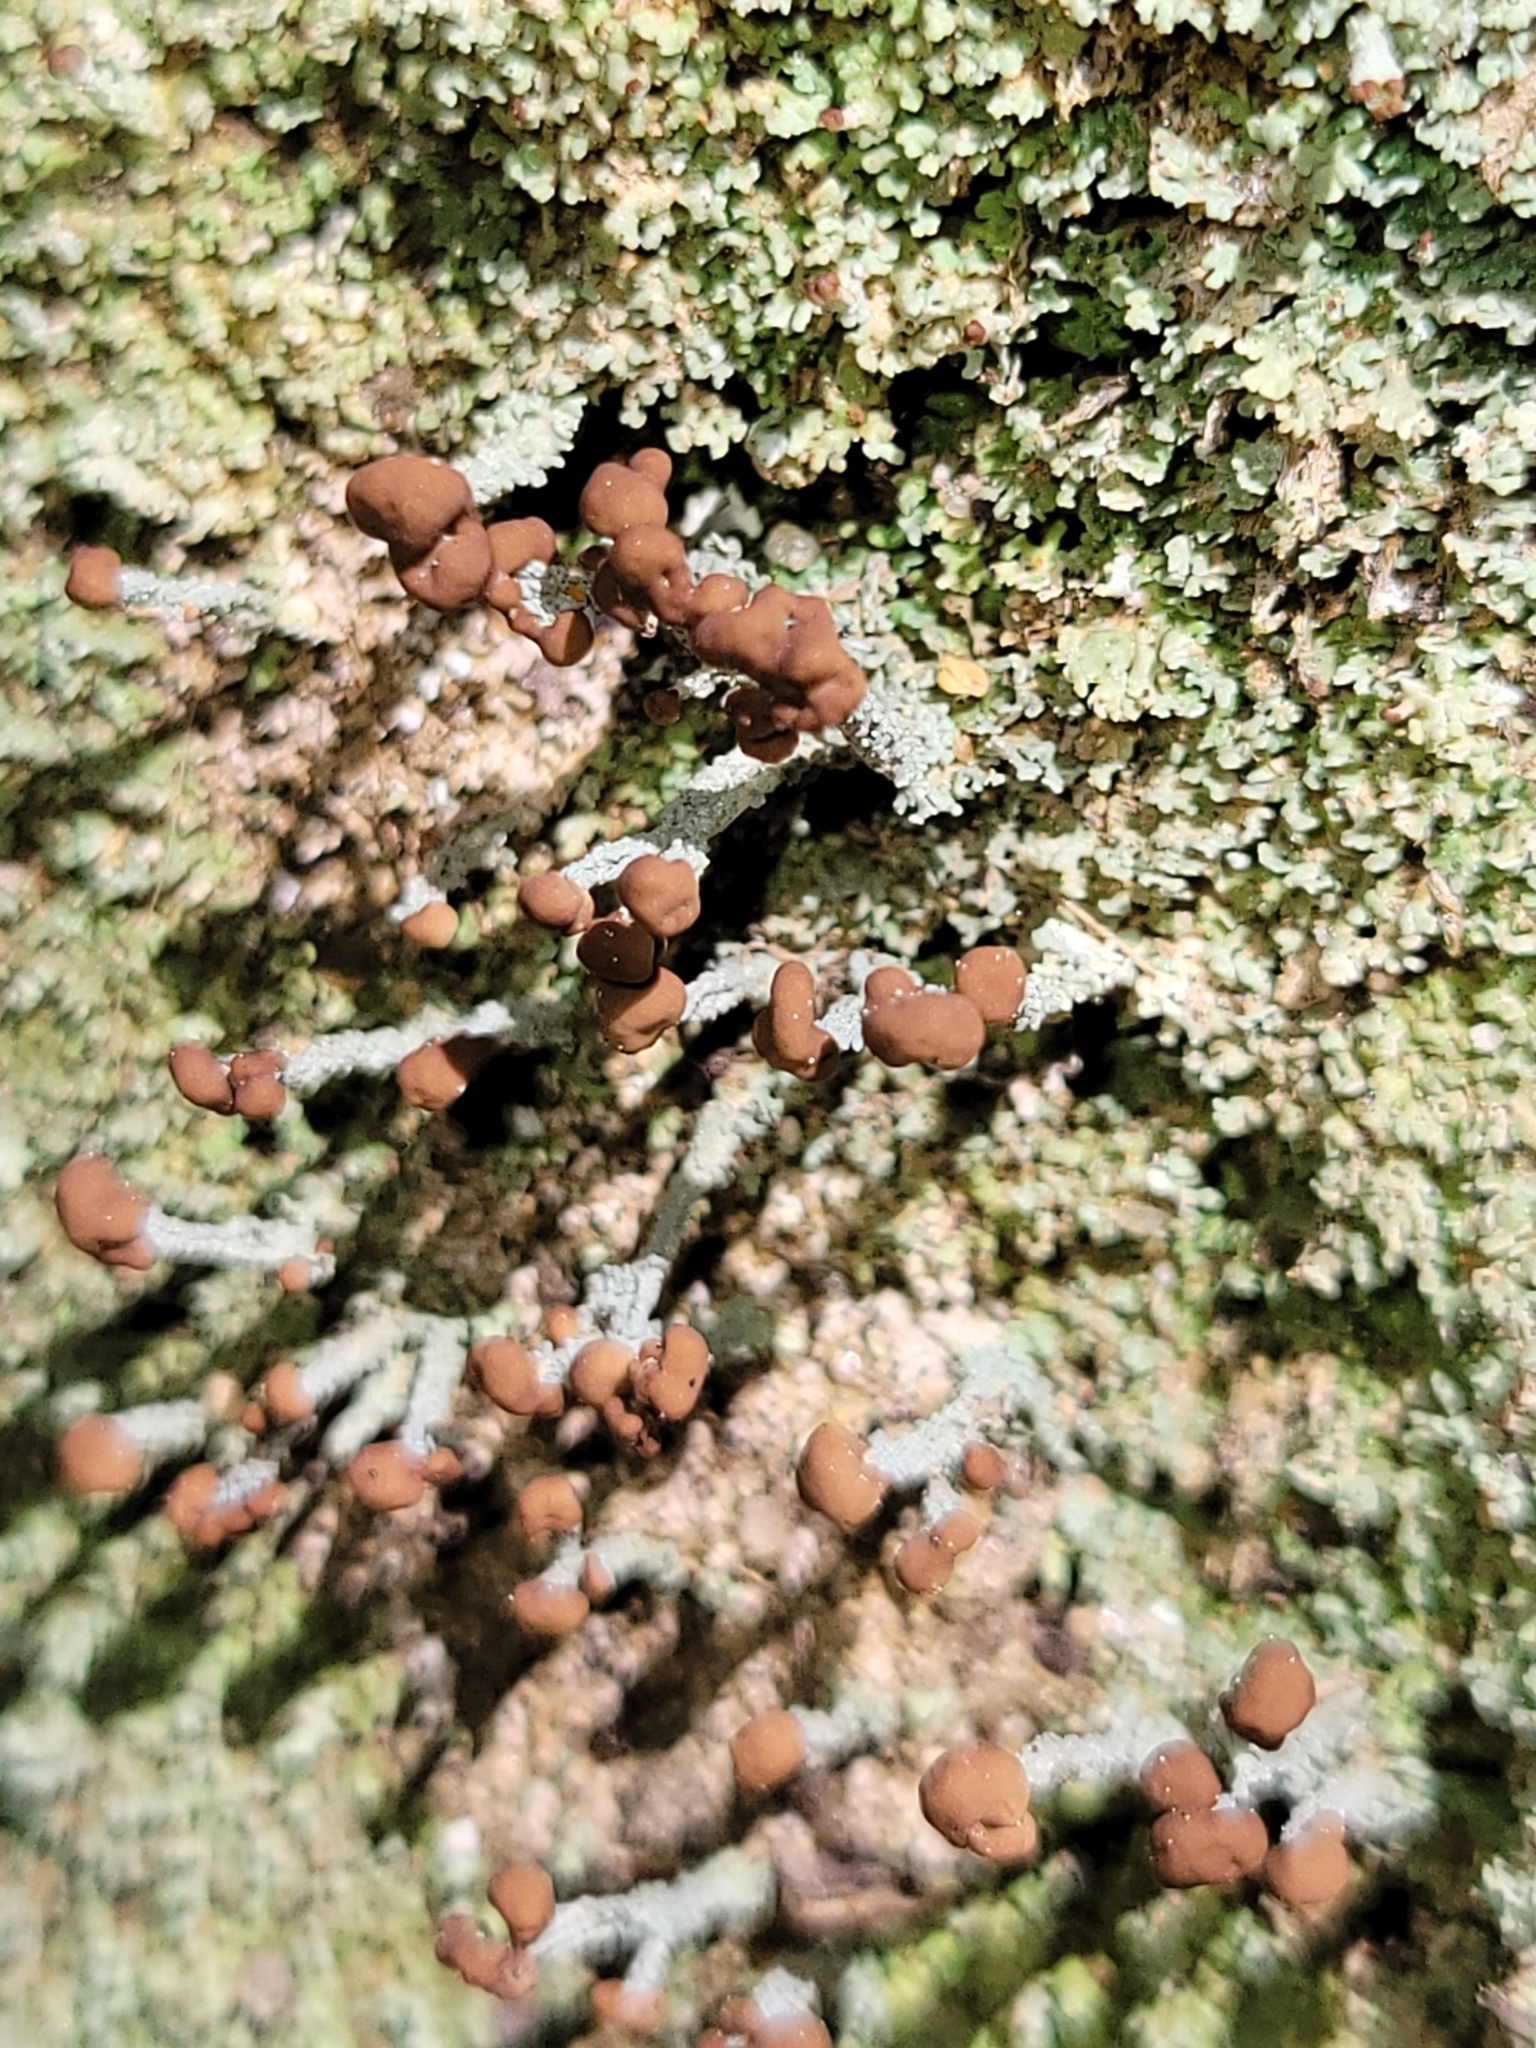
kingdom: Fungi
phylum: Ascomycota
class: Lecanoromycetes
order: Lecanorales
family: Cladoniaceae
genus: Cladonia
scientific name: Cladonia peziziformis
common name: Cup lichen
